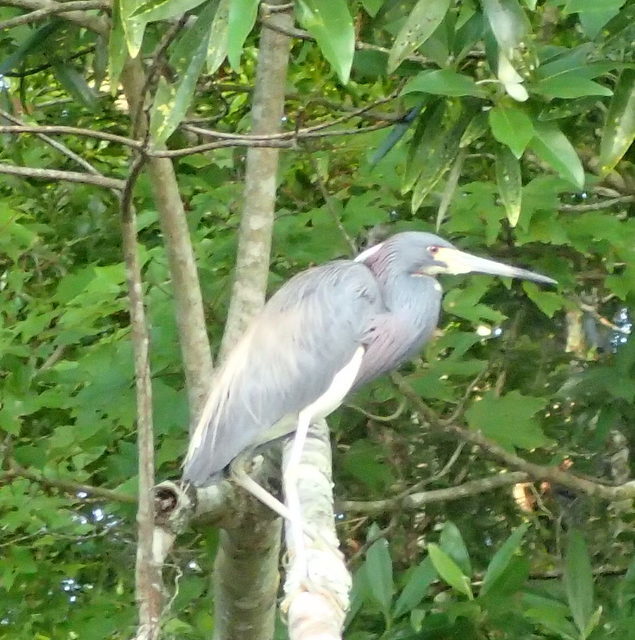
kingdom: Animalia
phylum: Chordata
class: Aves
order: Pelecaniformes
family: Ardeidae
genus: Egretta
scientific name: Egretta tricolor
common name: Tricolored heron
